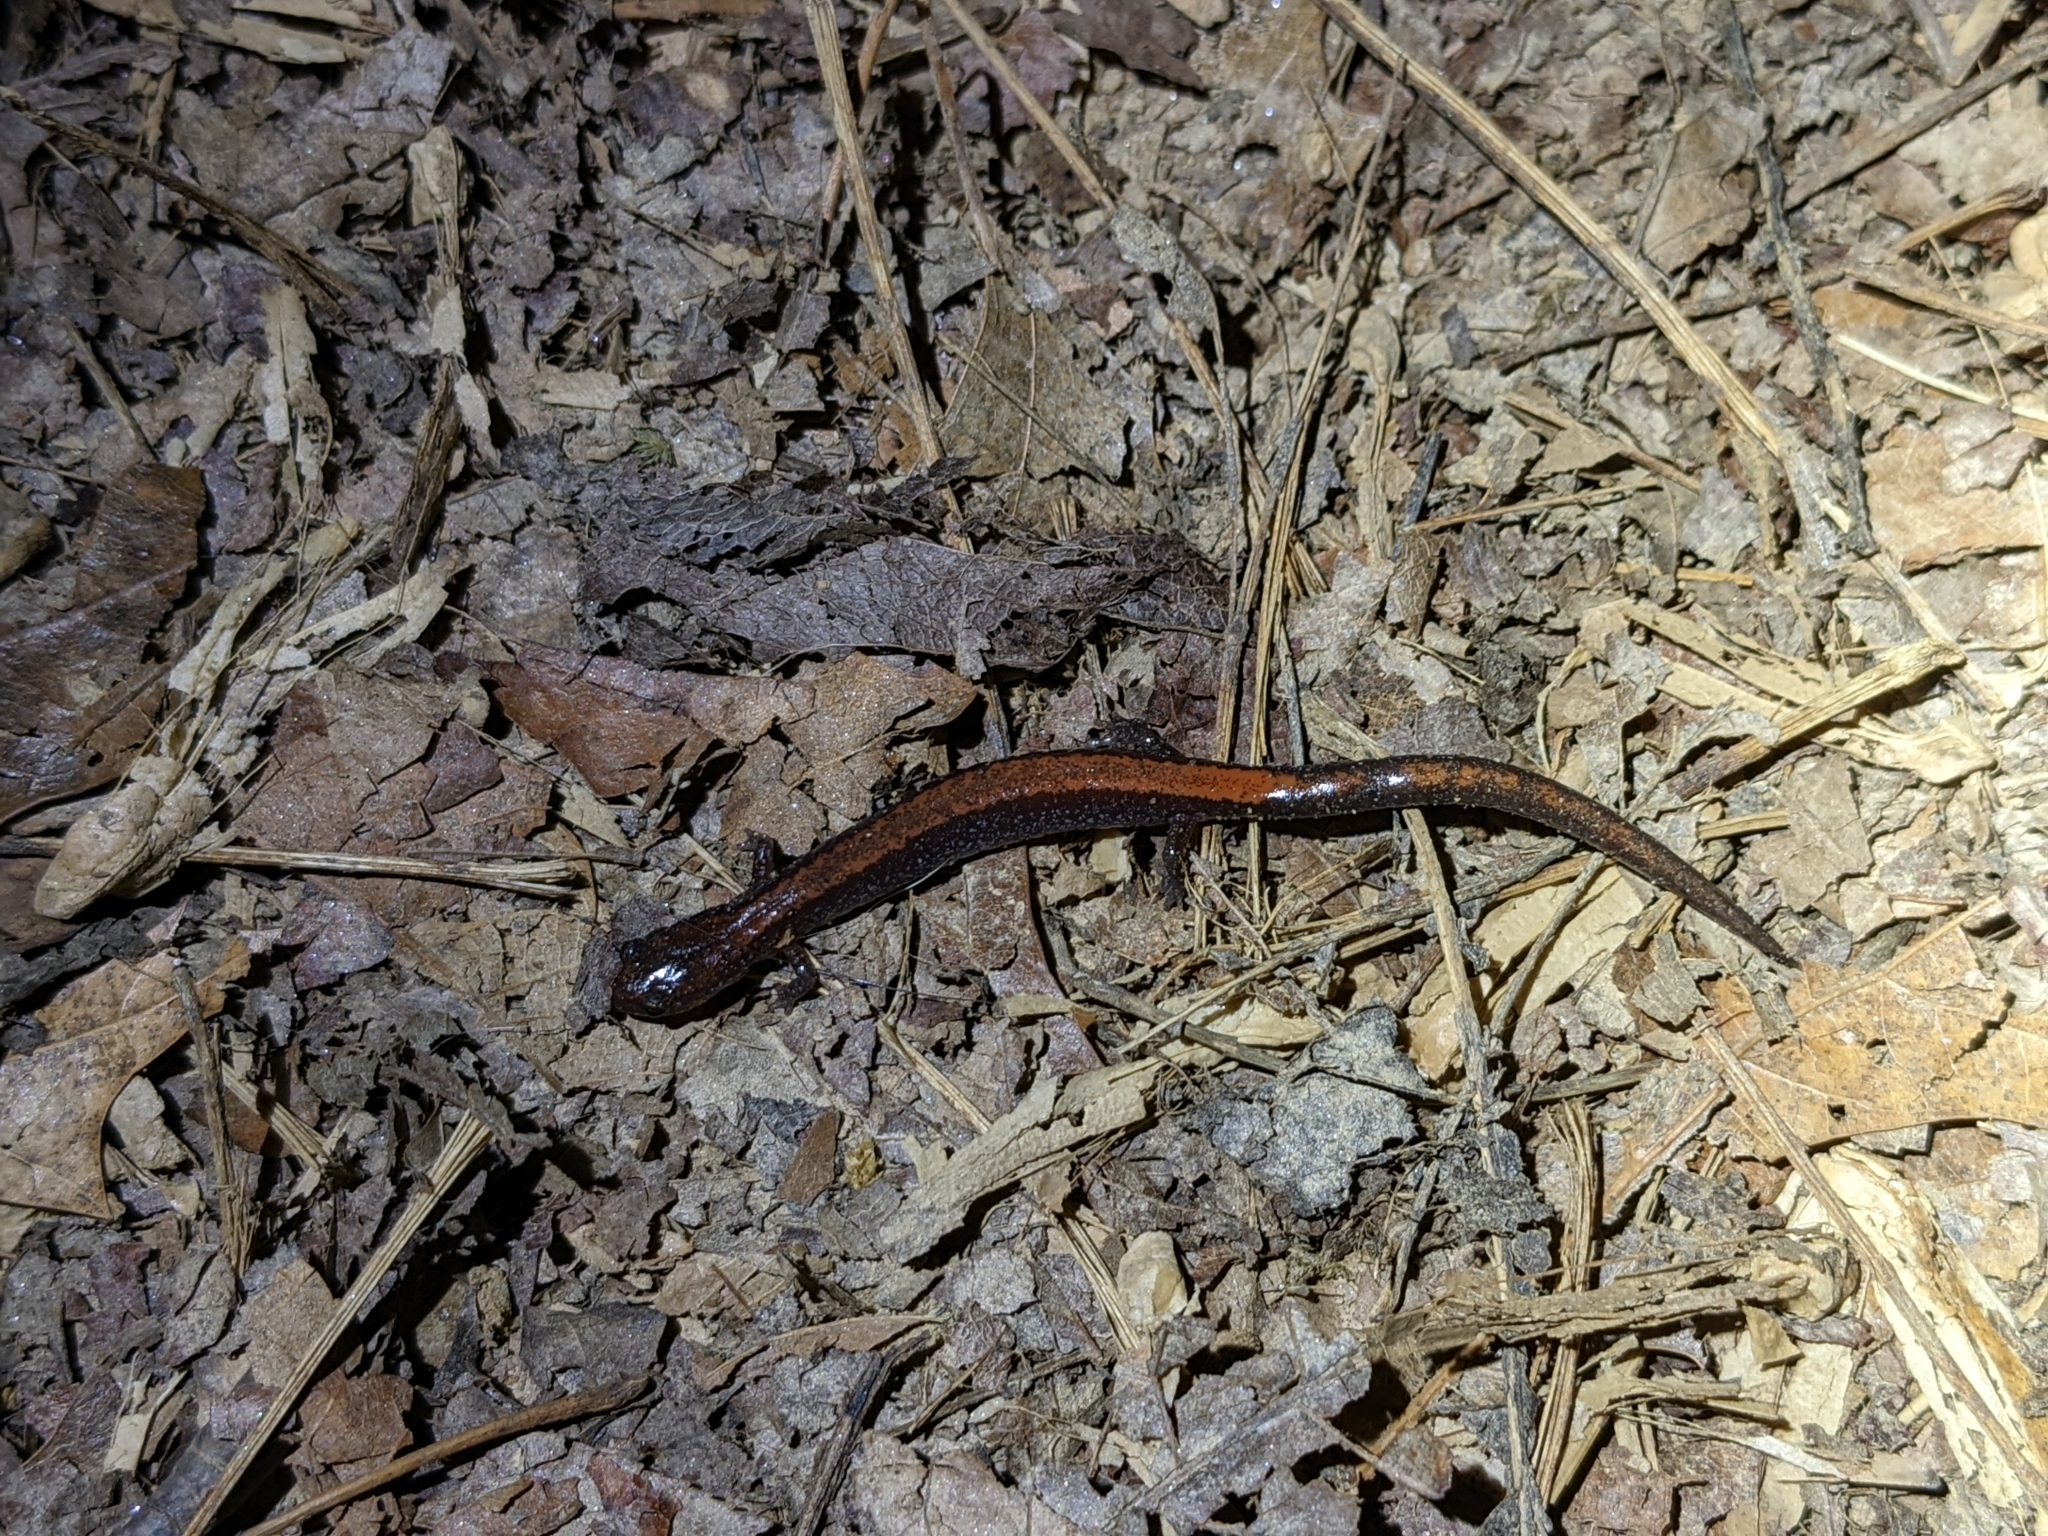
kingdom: Animalia
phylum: Chordata
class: Amphibia
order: Caudata
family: Plethodontidae
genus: Plethodon
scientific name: Plethodon cinereus
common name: Redback salamander
